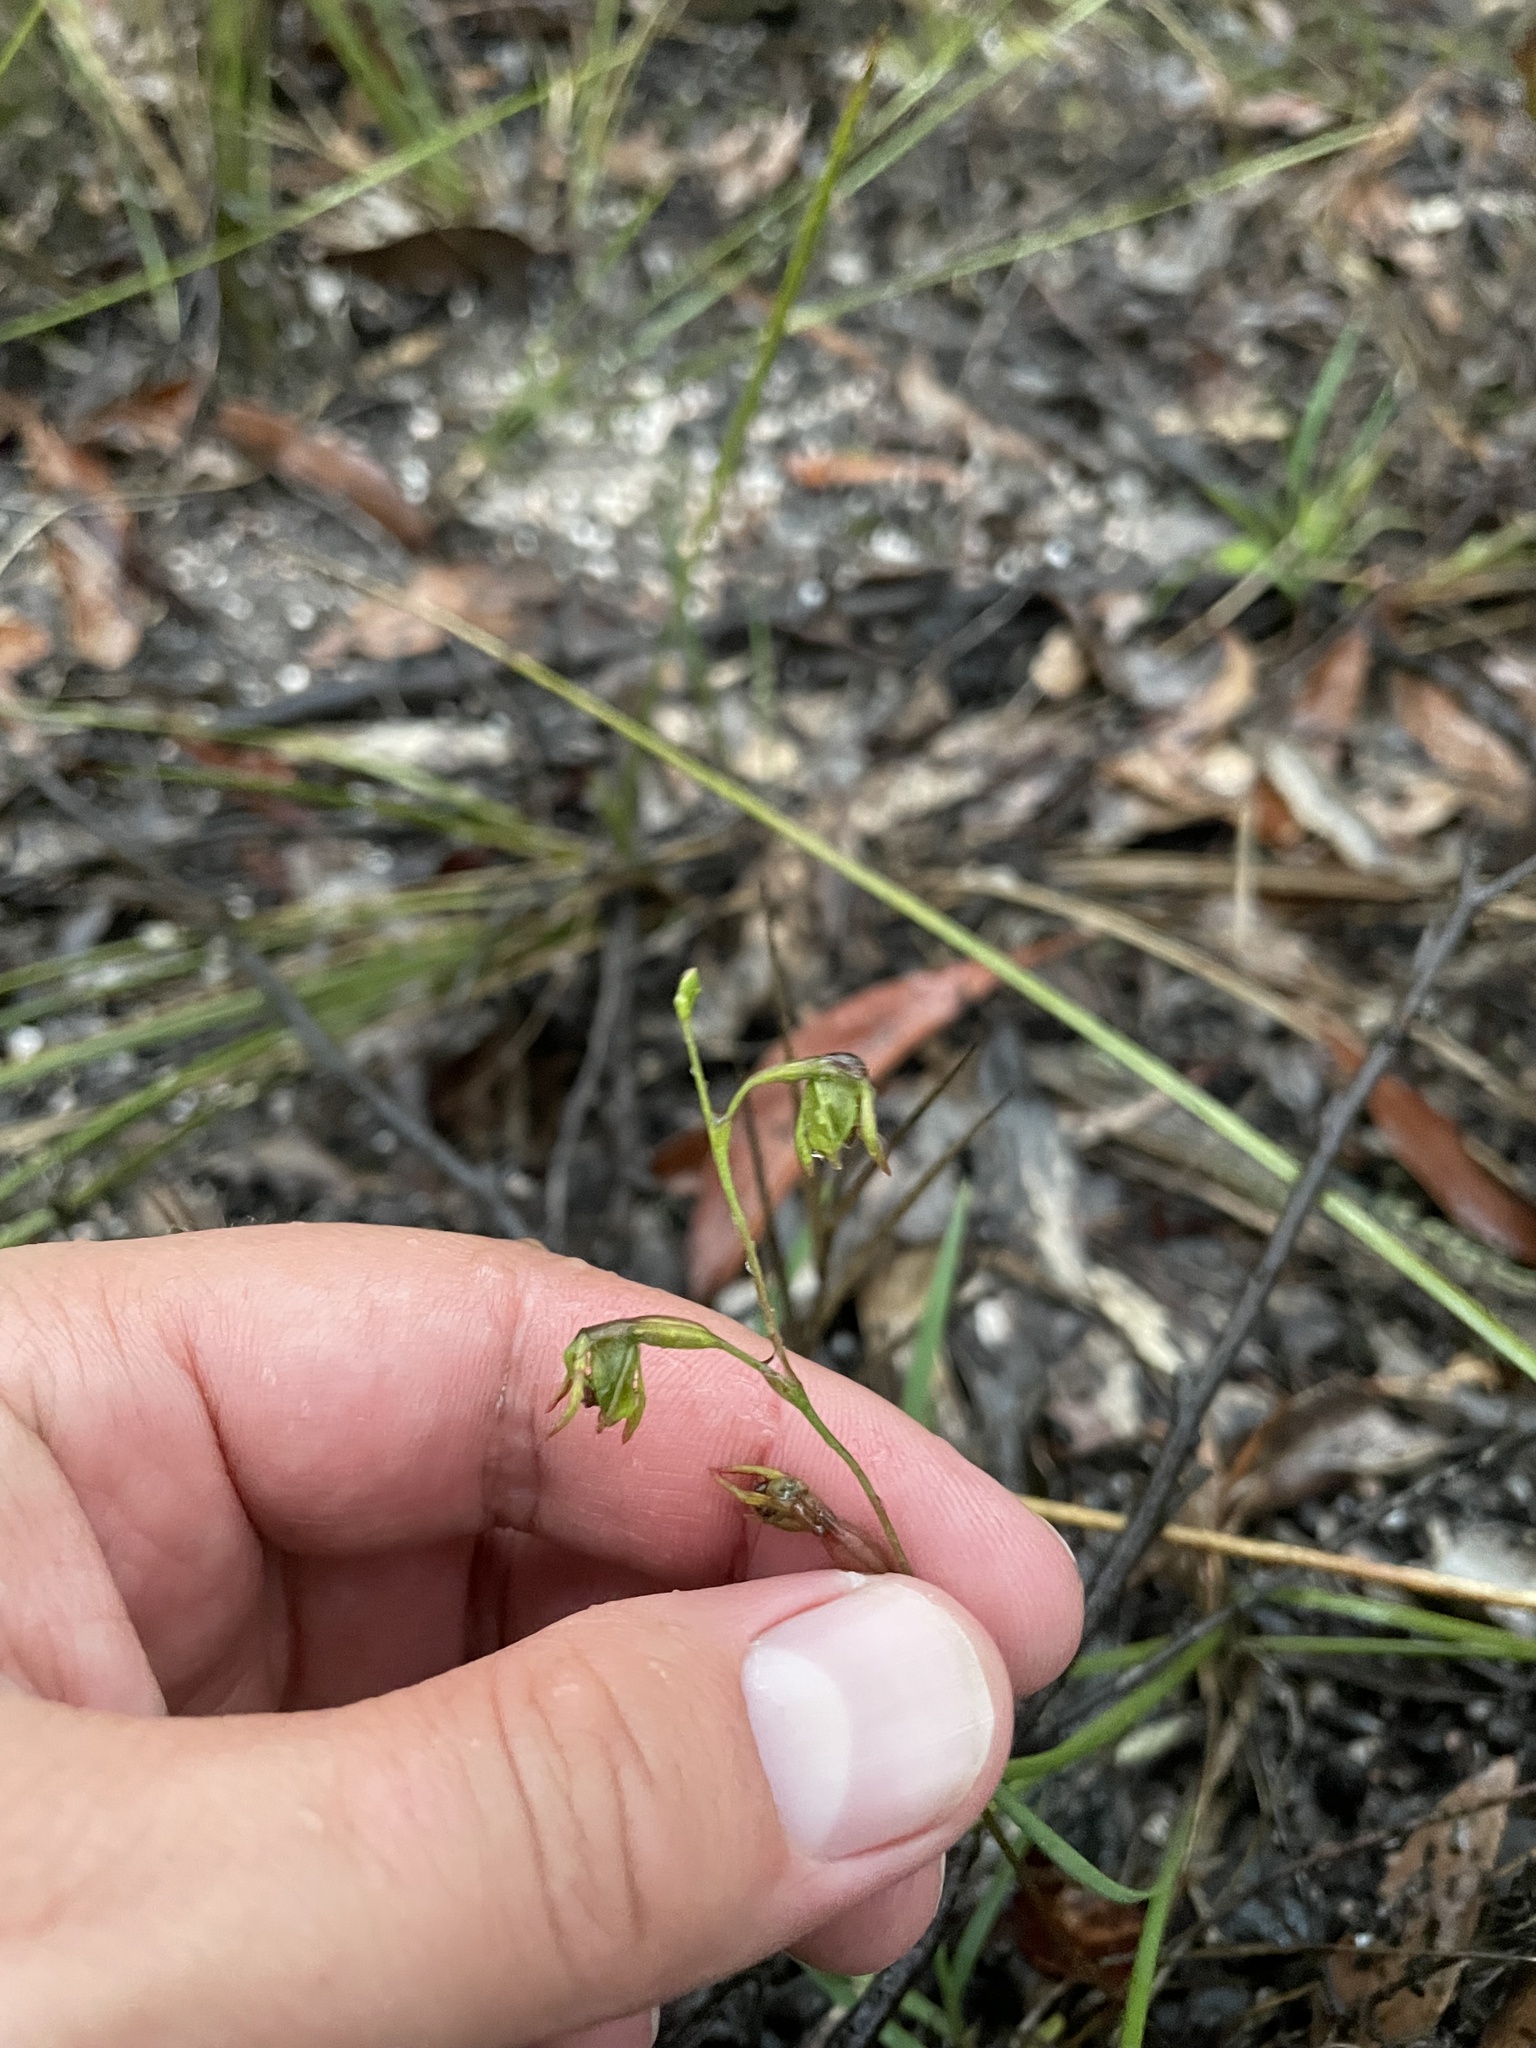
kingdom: Plantae
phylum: Tracheophyta
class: Liliopsida
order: Asparagales
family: Orchidaceae
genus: Caleana
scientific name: Caleana minor
